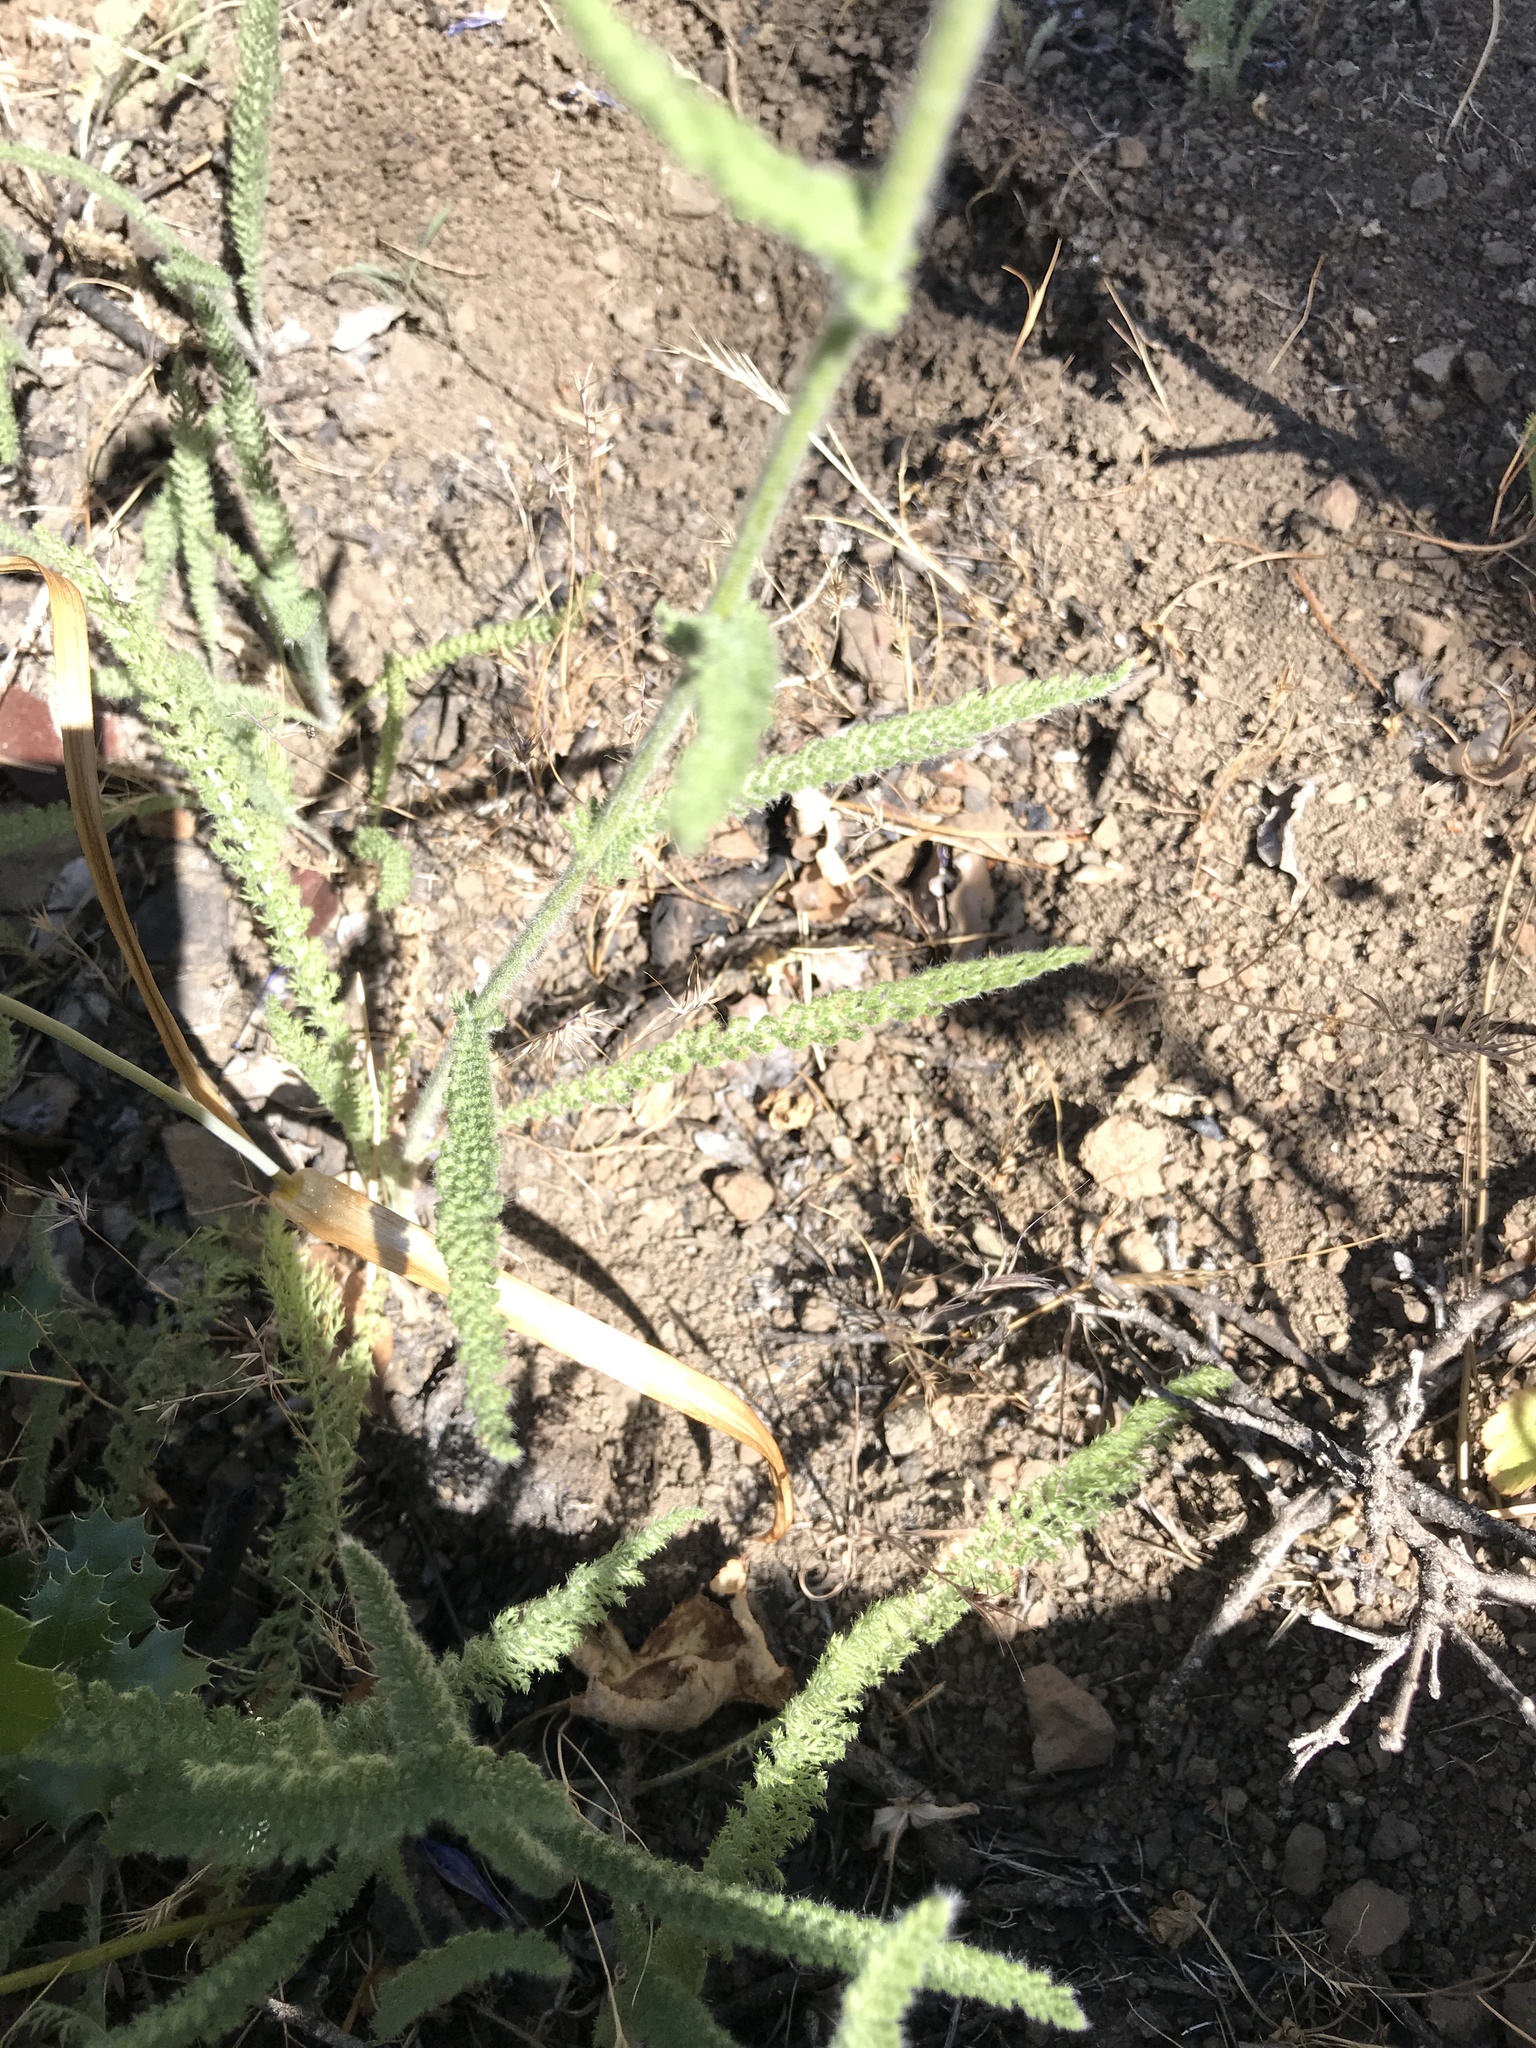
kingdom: Plantae
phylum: Tracheophyta
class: Magnoliopsida
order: Asterales
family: Asteraceae
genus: Achillea
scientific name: Achillea millefolium
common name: Yarrow
